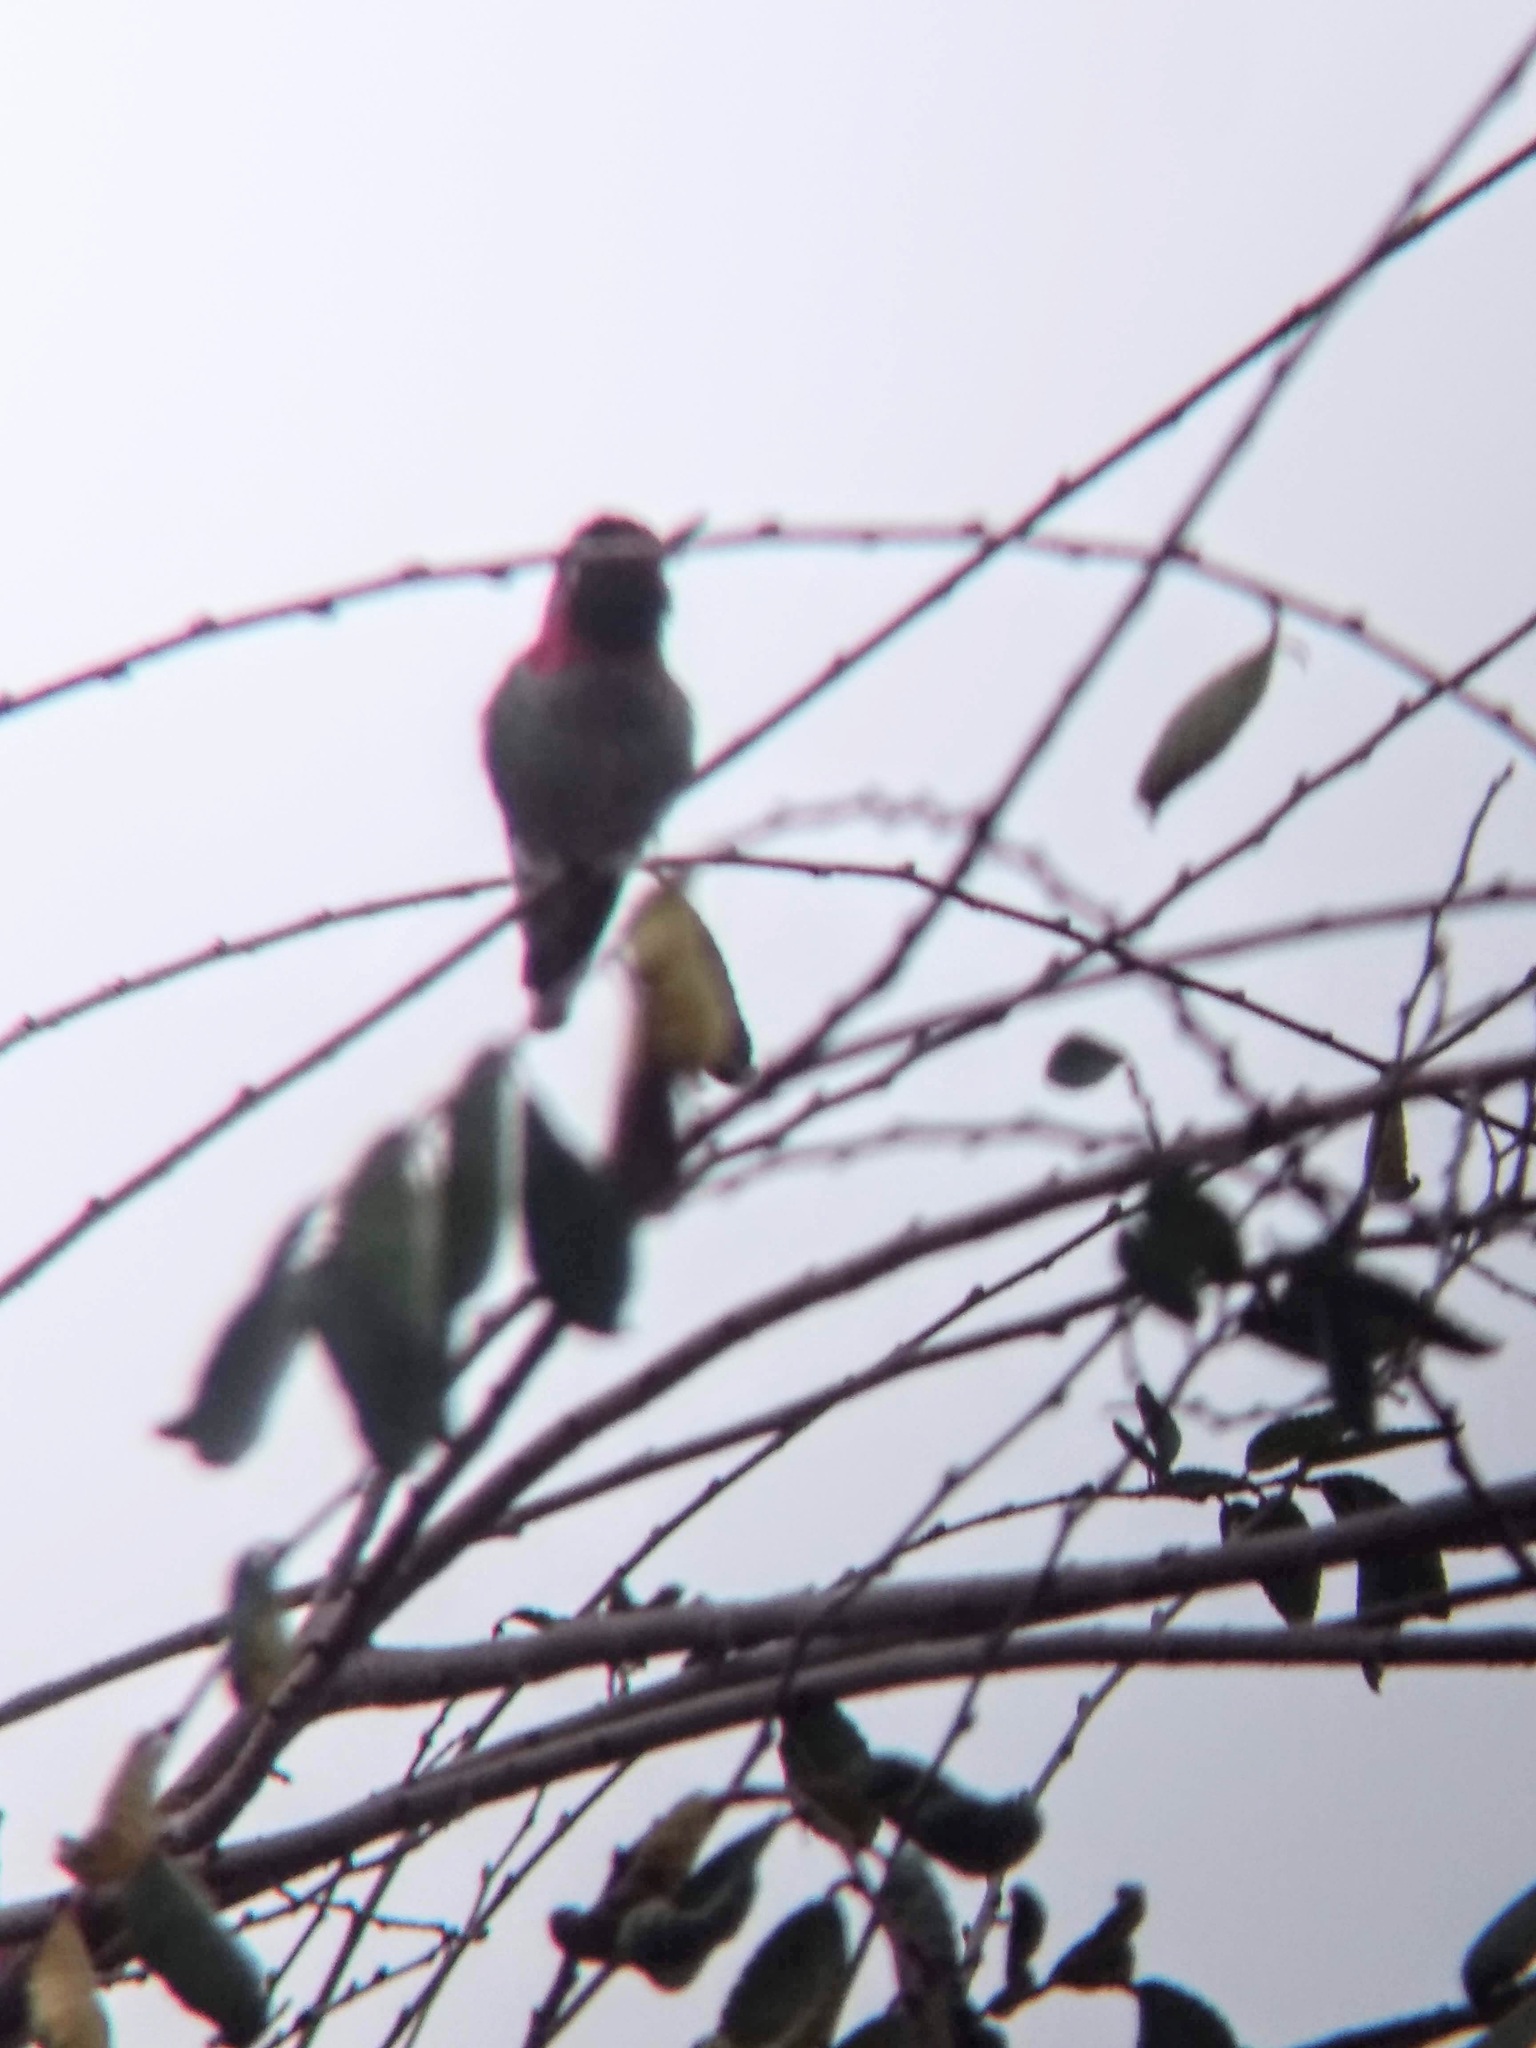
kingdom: Animalia
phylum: Chordata
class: Aves
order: Apodiformes
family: Trochilidae
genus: Calypte
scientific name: Calypte anna
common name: Anna's hummingbird
